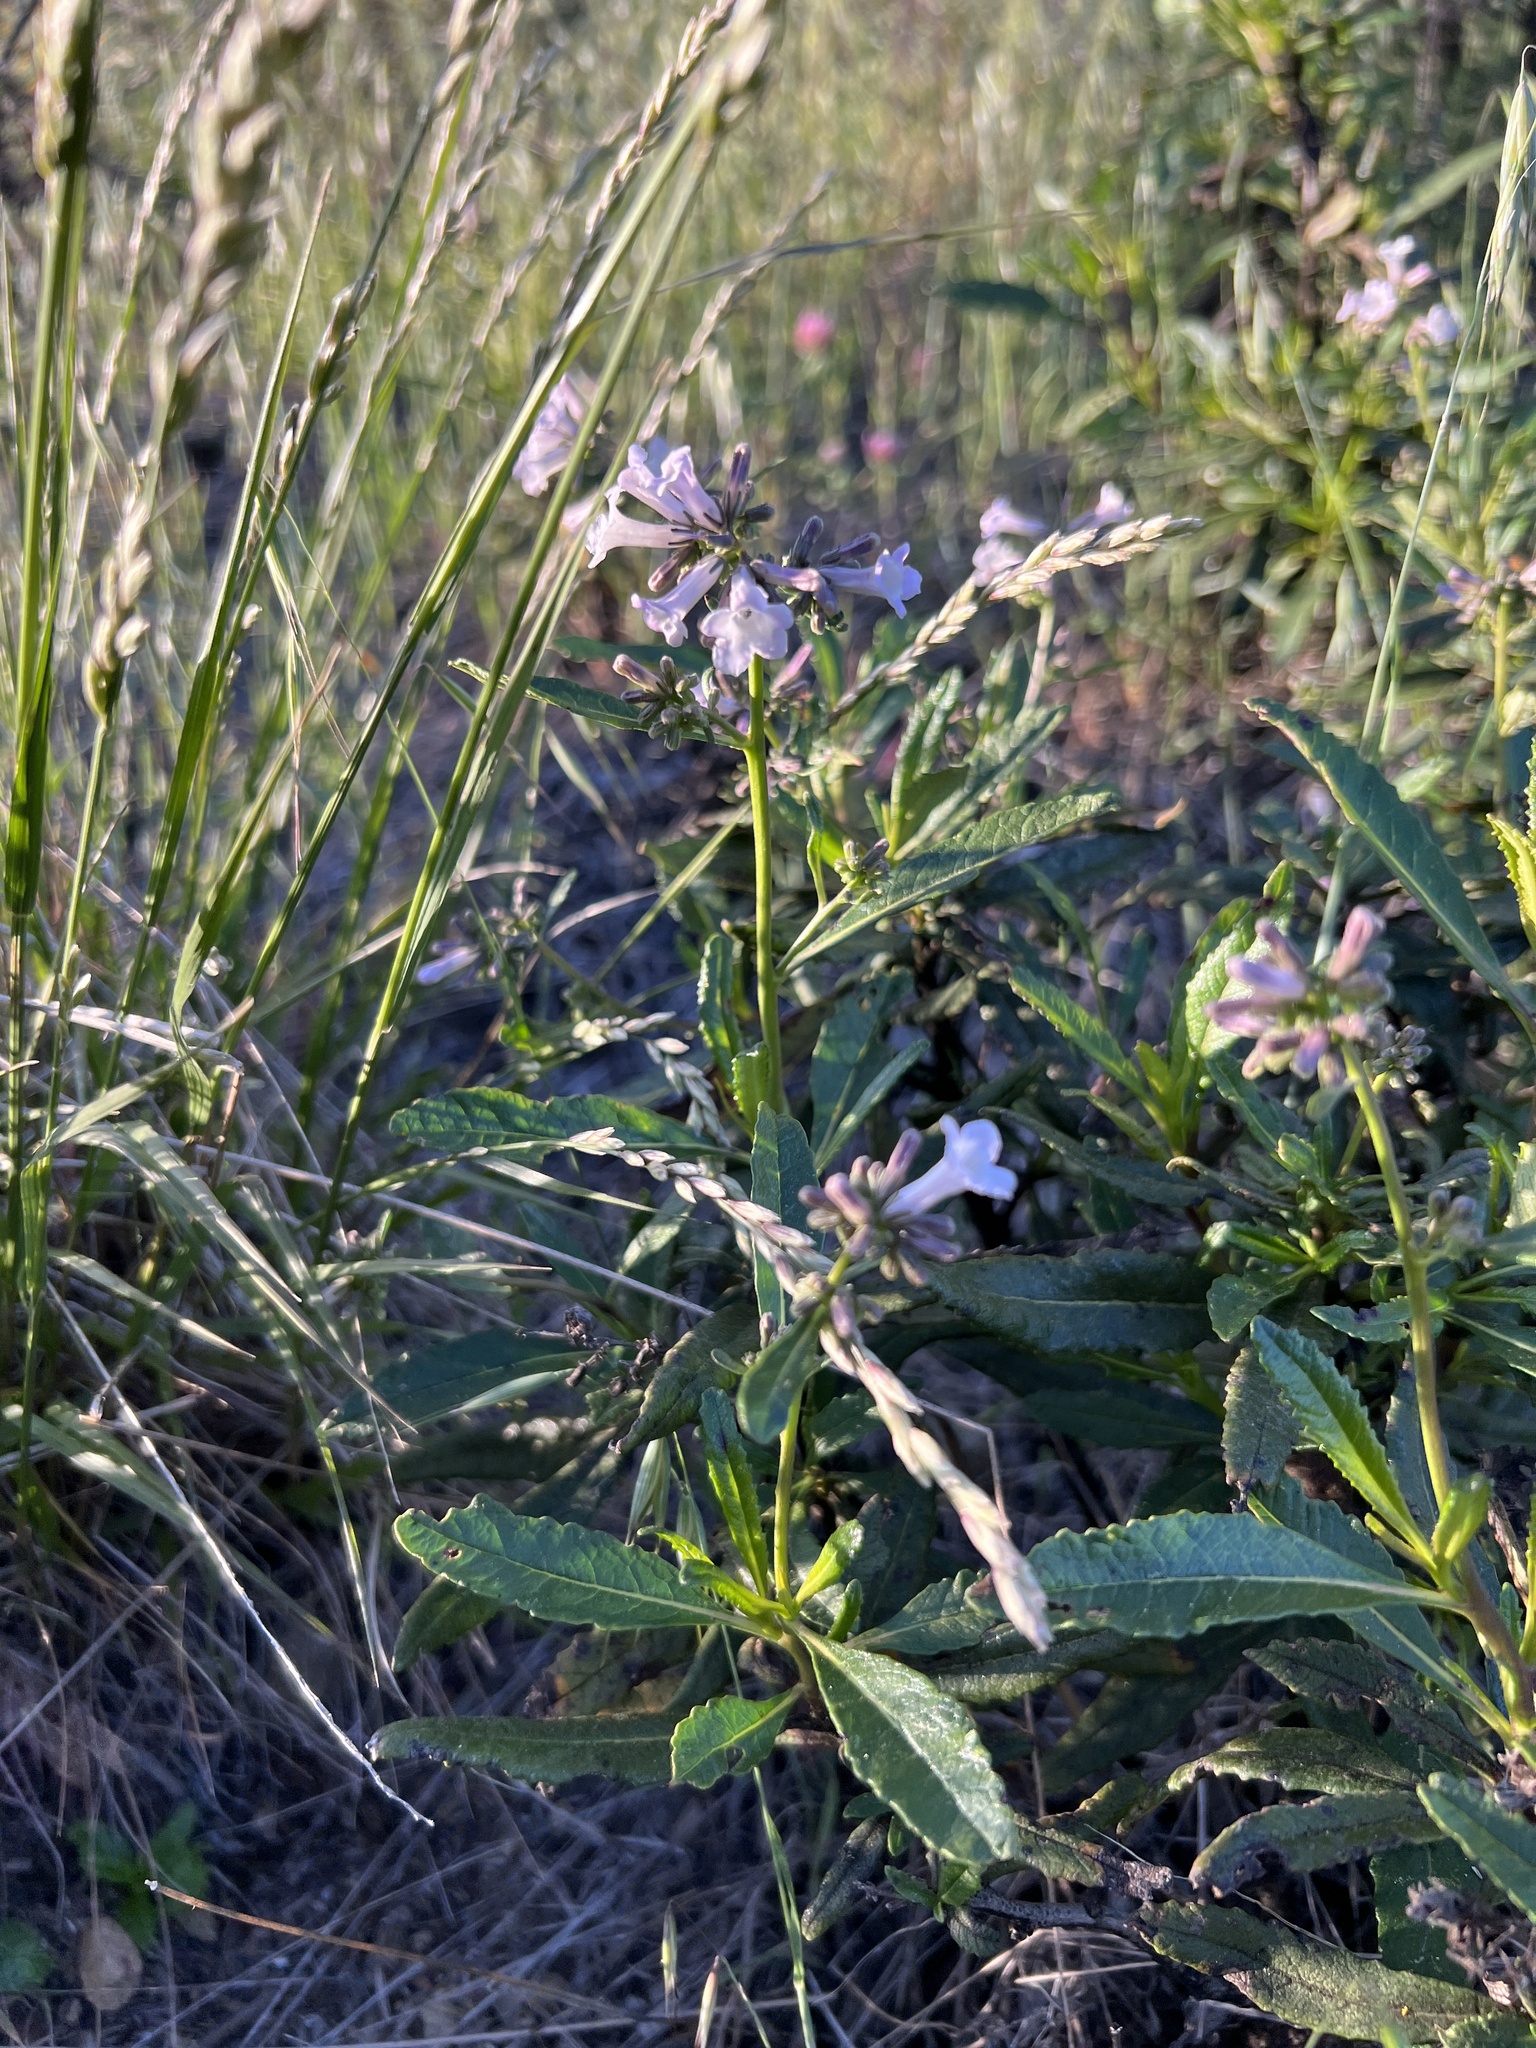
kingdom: Plantae
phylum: Tracheophyta
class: Magnoliopsida
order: Boraginales
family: Namaceae
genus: Eriodictyon
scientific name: Eriodictyon californicum
